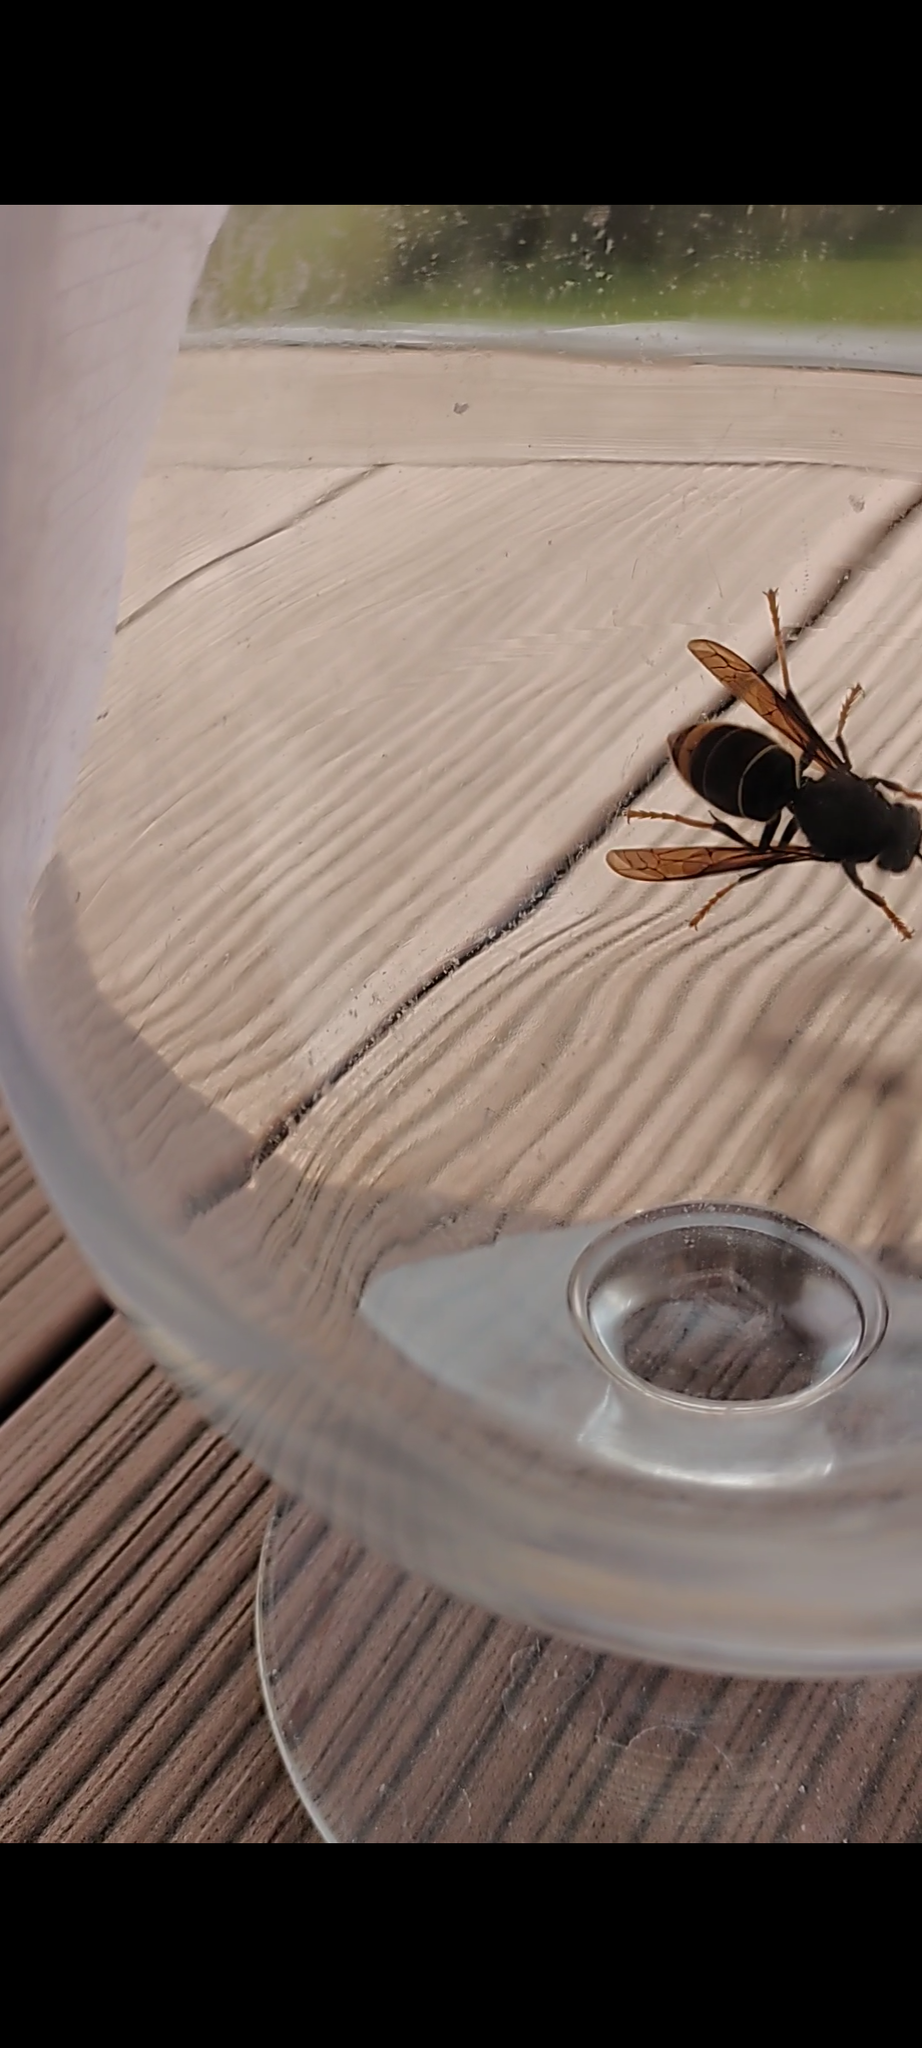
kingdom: Animalia
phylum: Arthropoda
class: Insecta
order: Hymenoptera
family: Vespidae
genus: Vespa
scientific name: Vespa velutina
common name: Asian hornet
